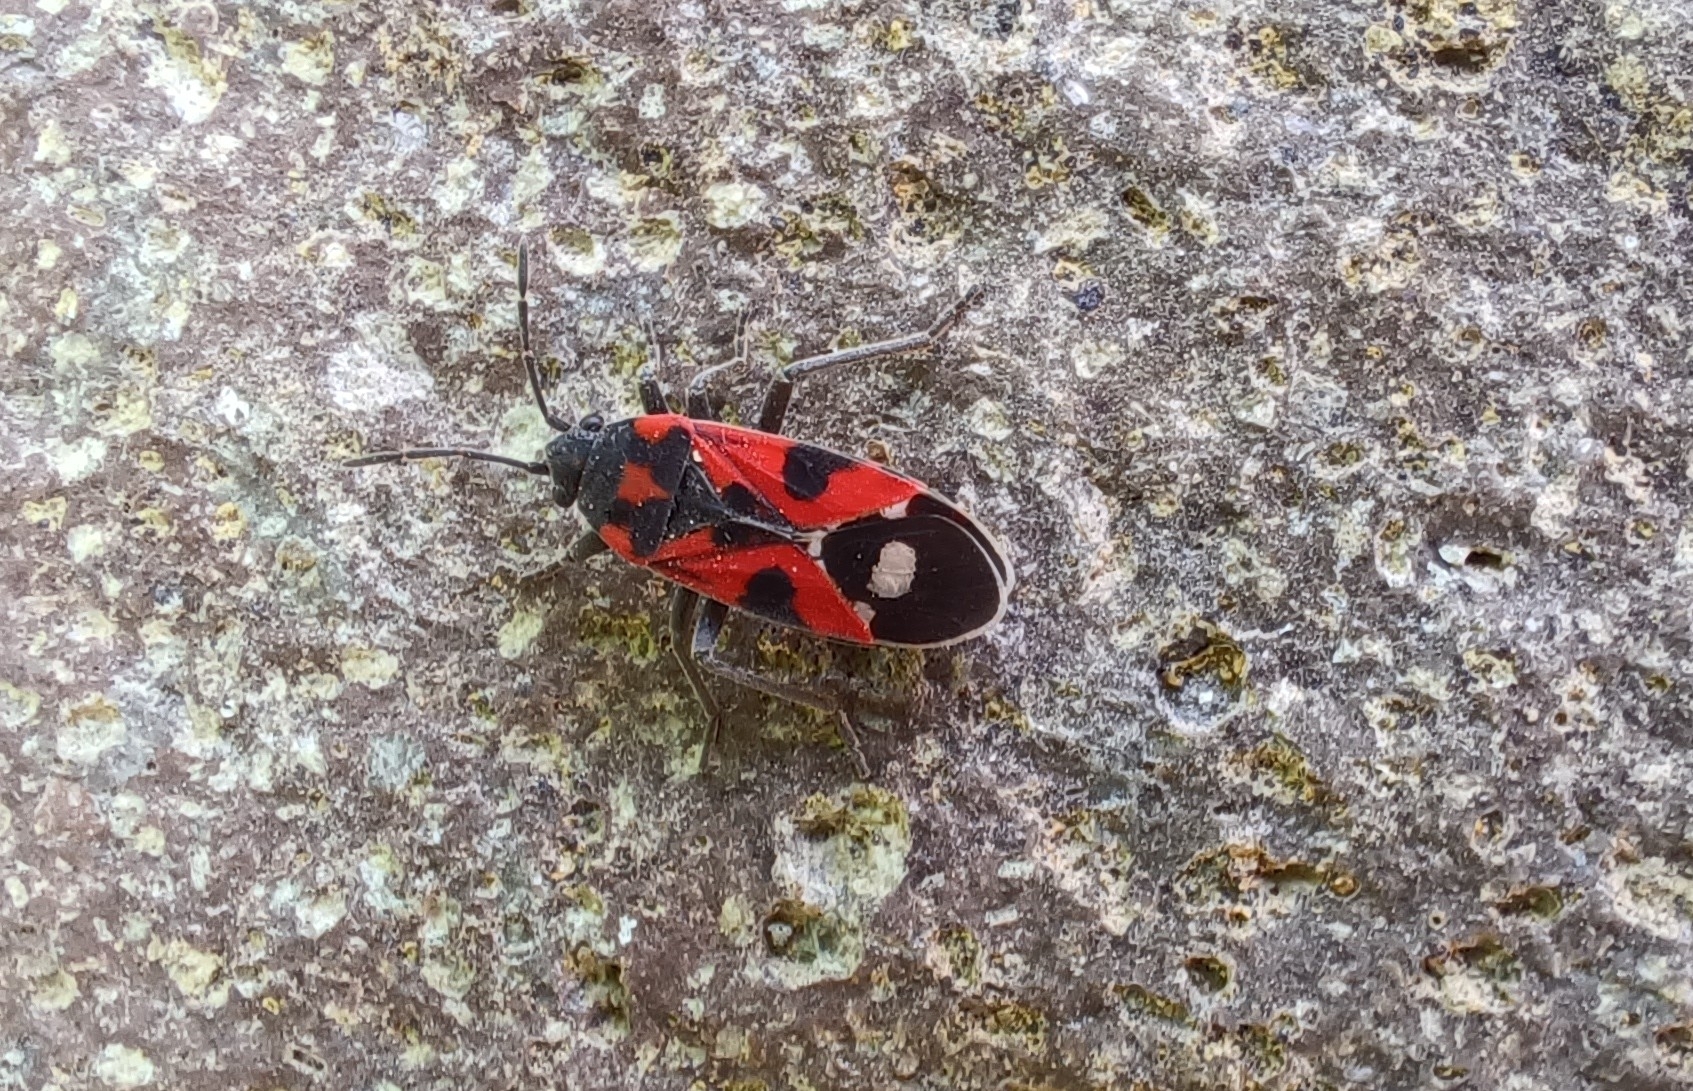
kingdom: Animalia
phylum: Arthropoda
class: Insecta
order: Hemiptera
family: Lygaeidae
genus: Lygaeus
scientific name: Lygaeus alboornatus
